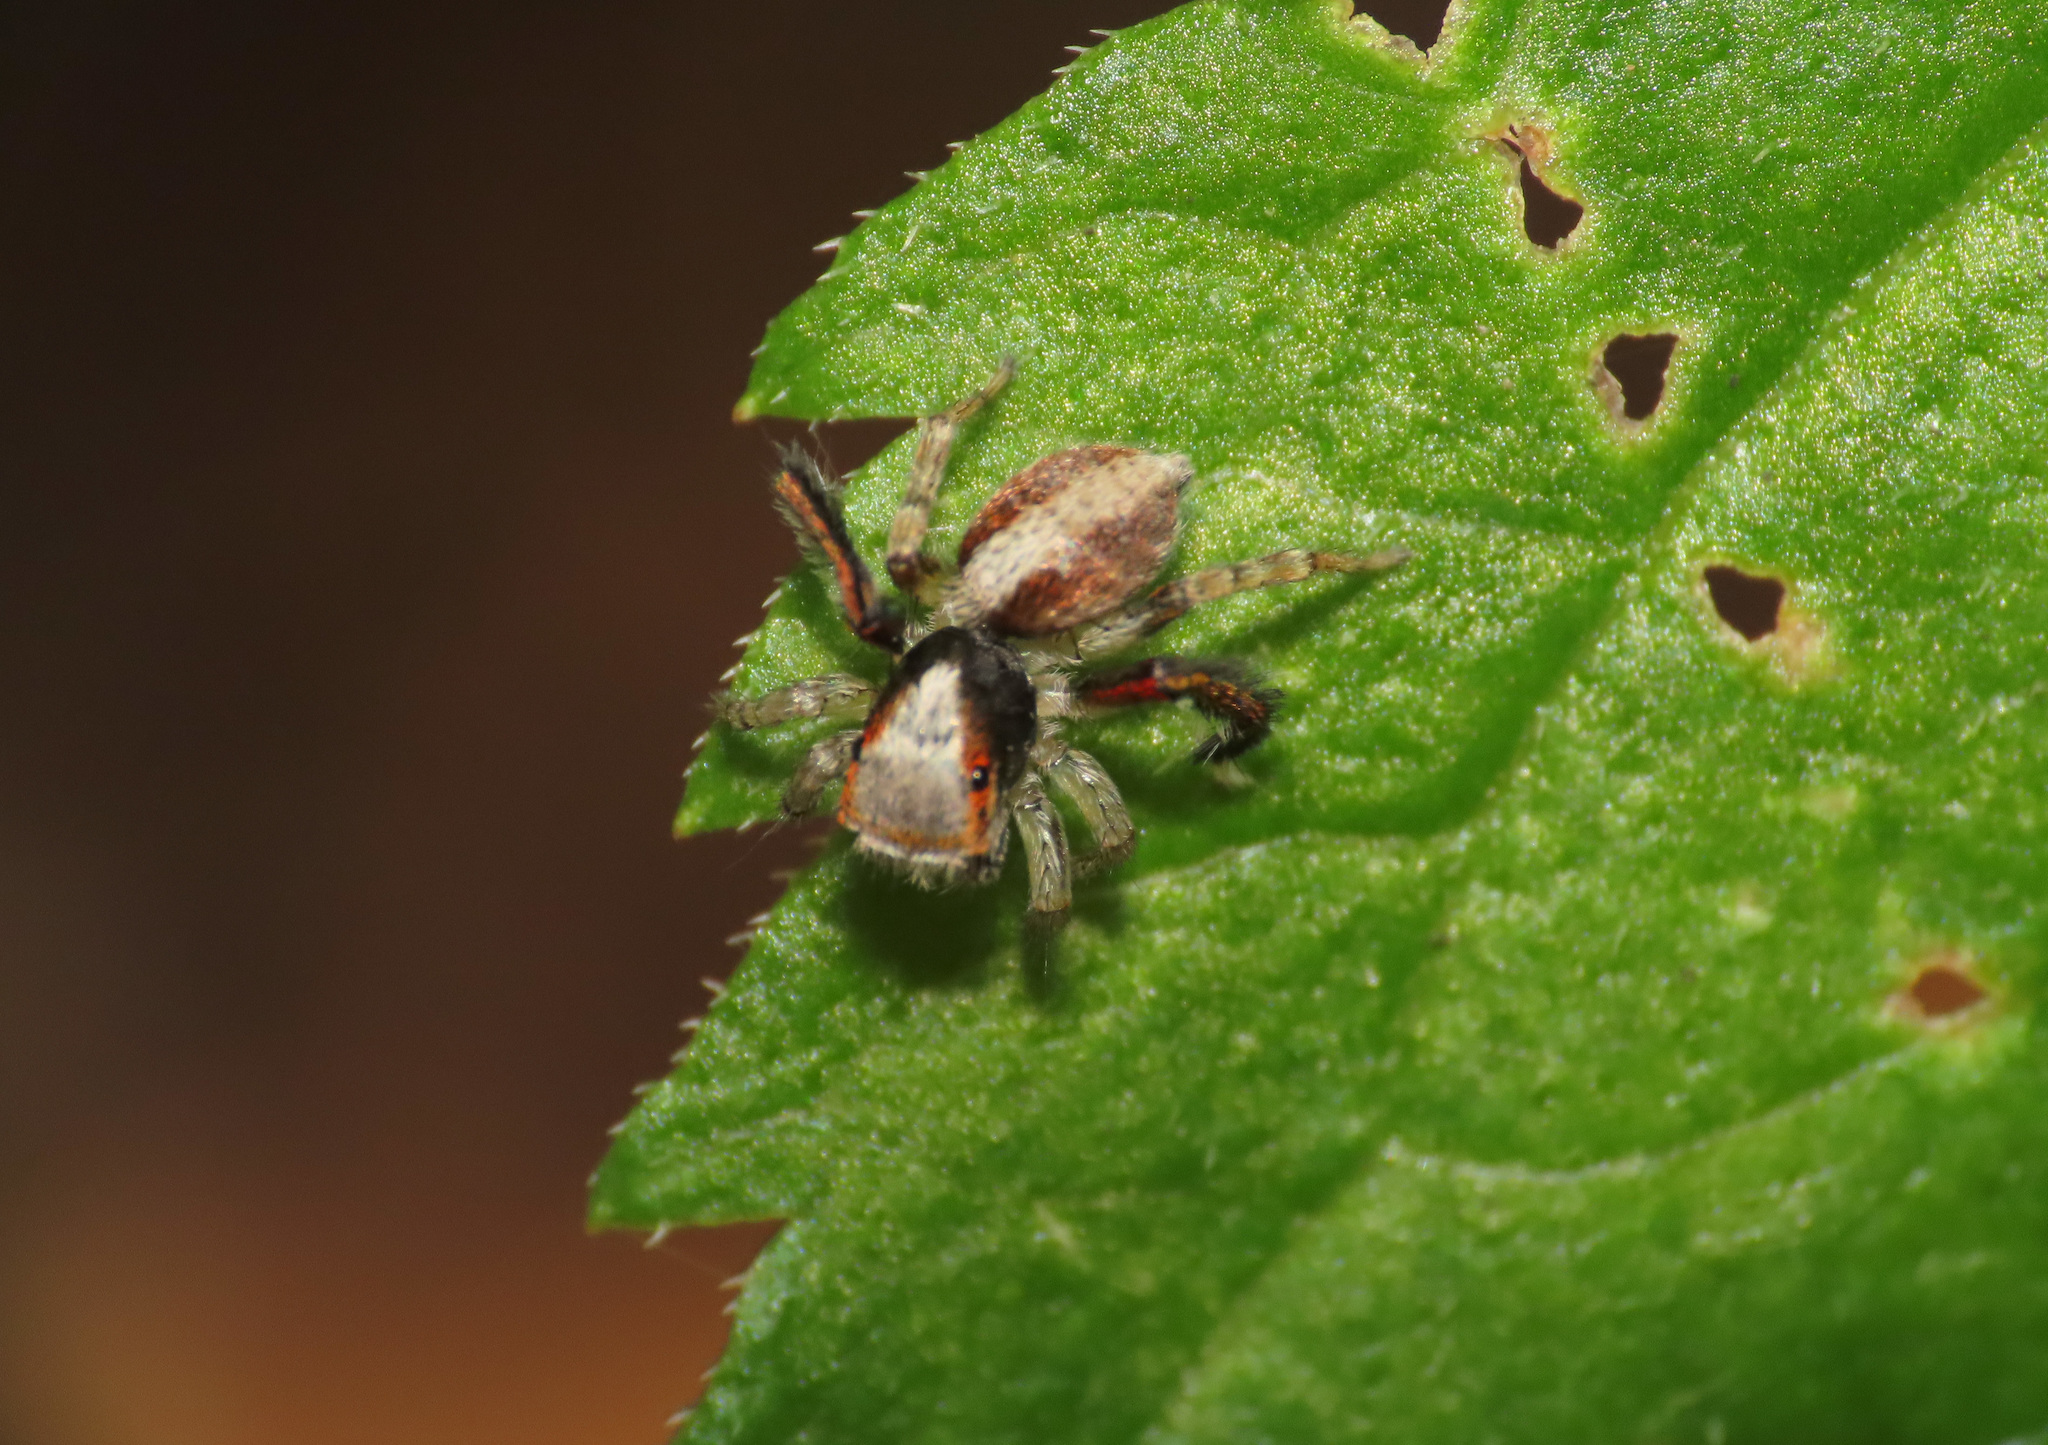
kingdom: Animalia
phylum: Arthropoda
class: Arachnida
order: Araneae
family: Salticidae
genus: Saitis
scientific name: Saitis barbipes
